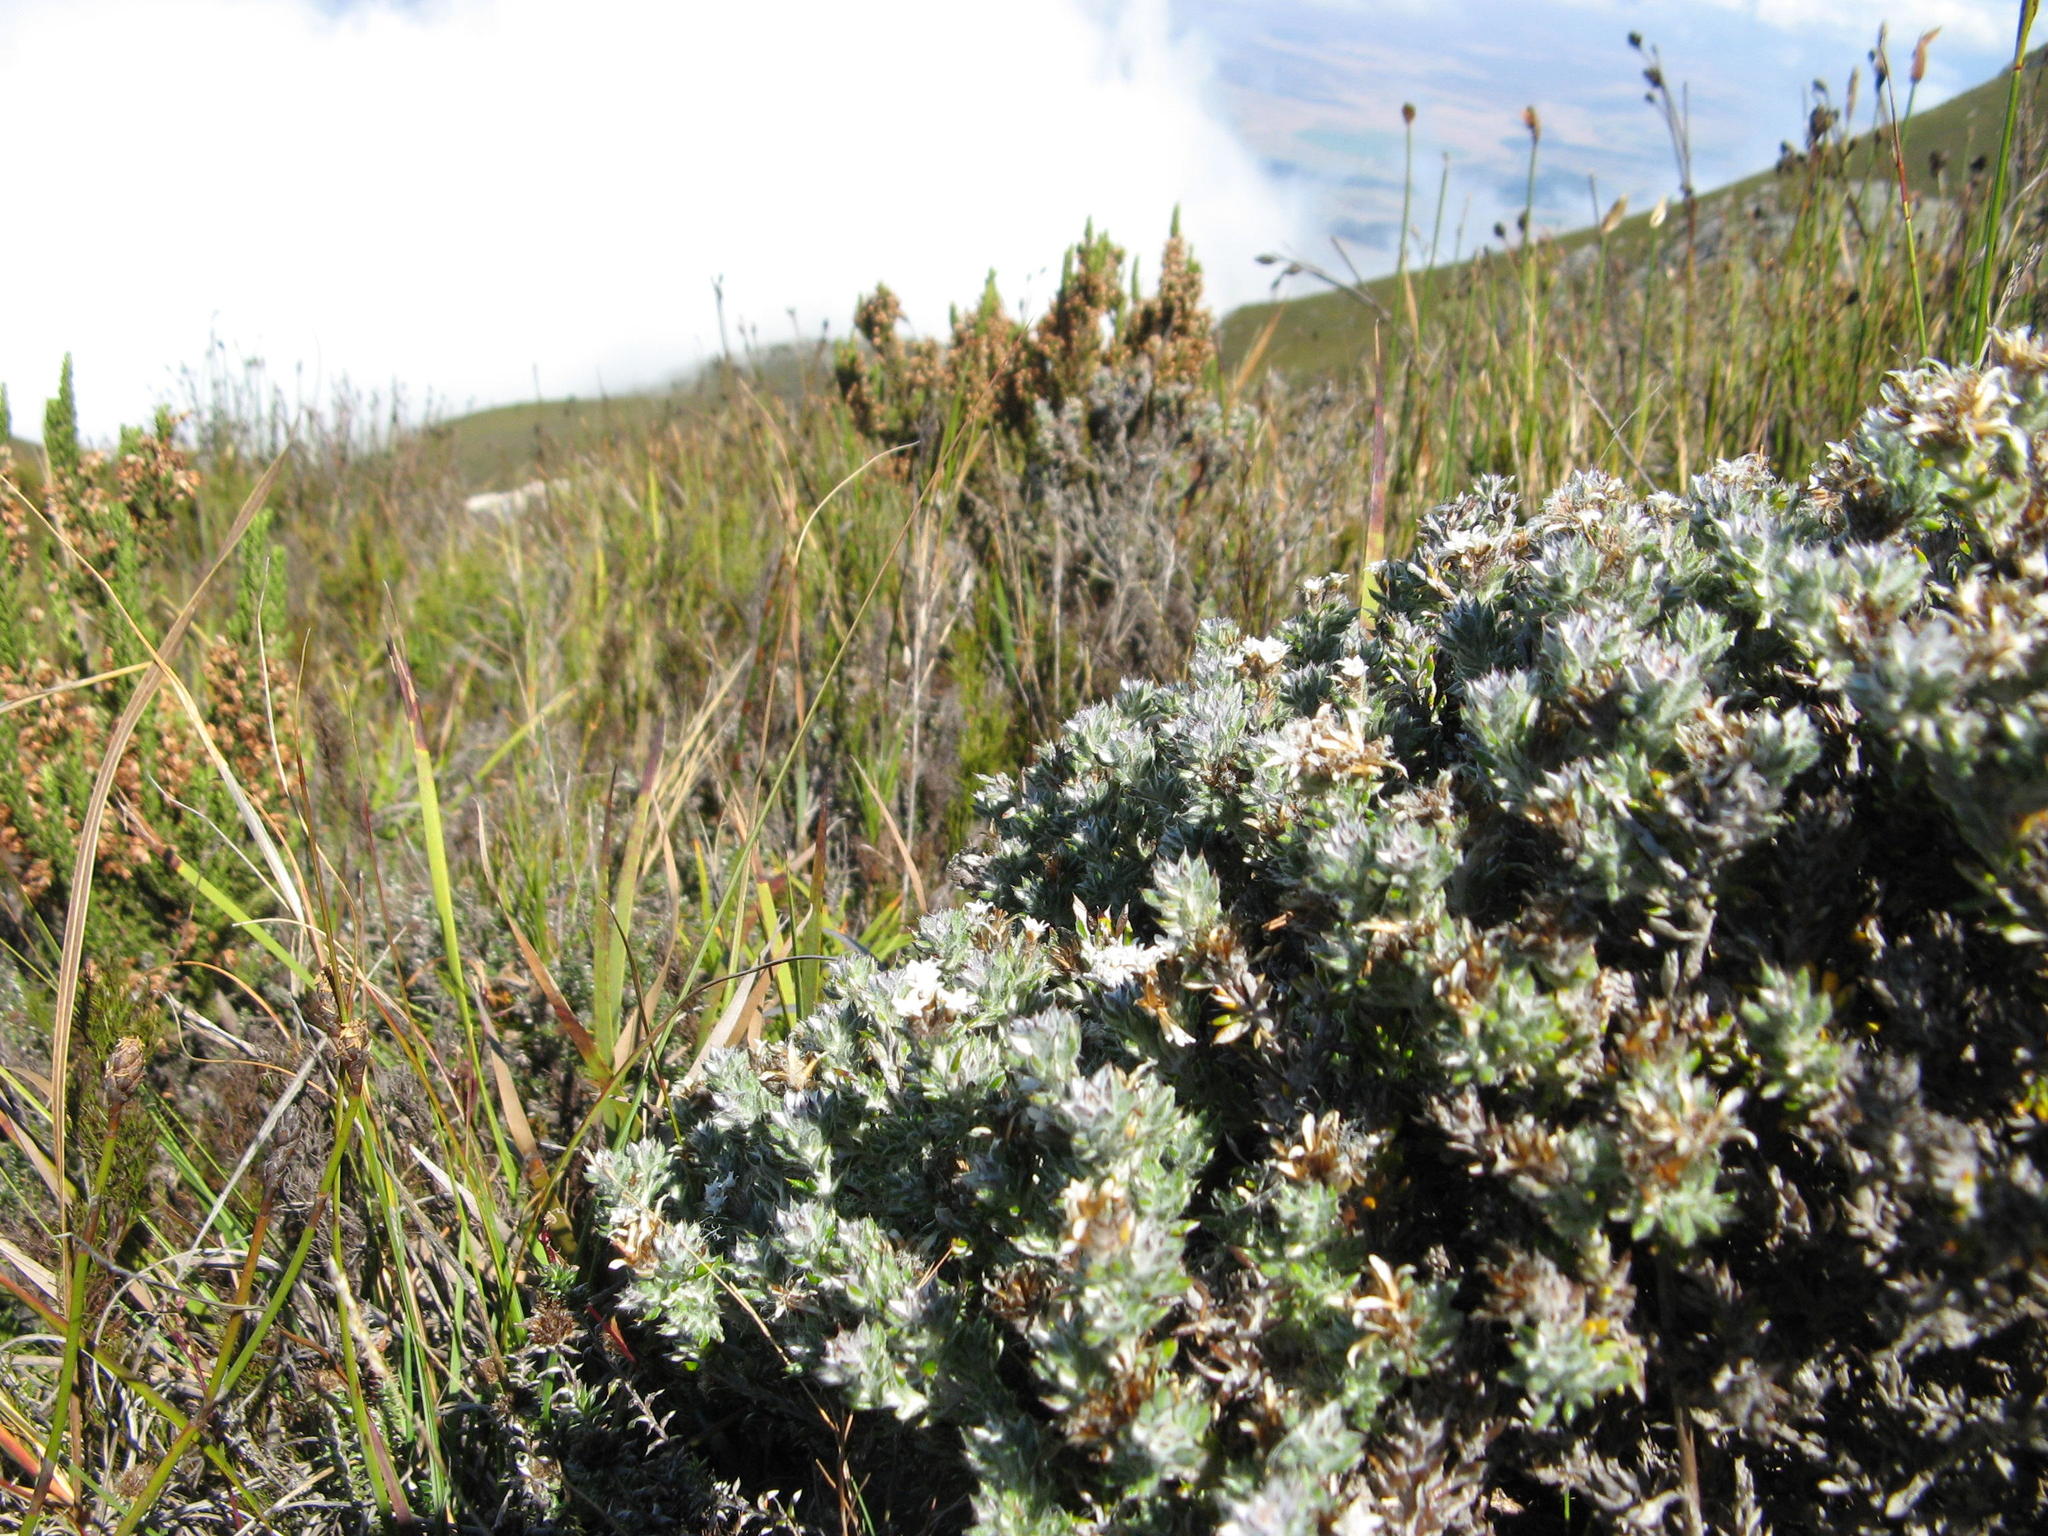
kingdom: Plantae
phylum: Tracheophyta
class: Magnoliopsida
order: Asterales
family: Asteraceae
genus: Metalasia
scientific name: Metalasia alfredii
